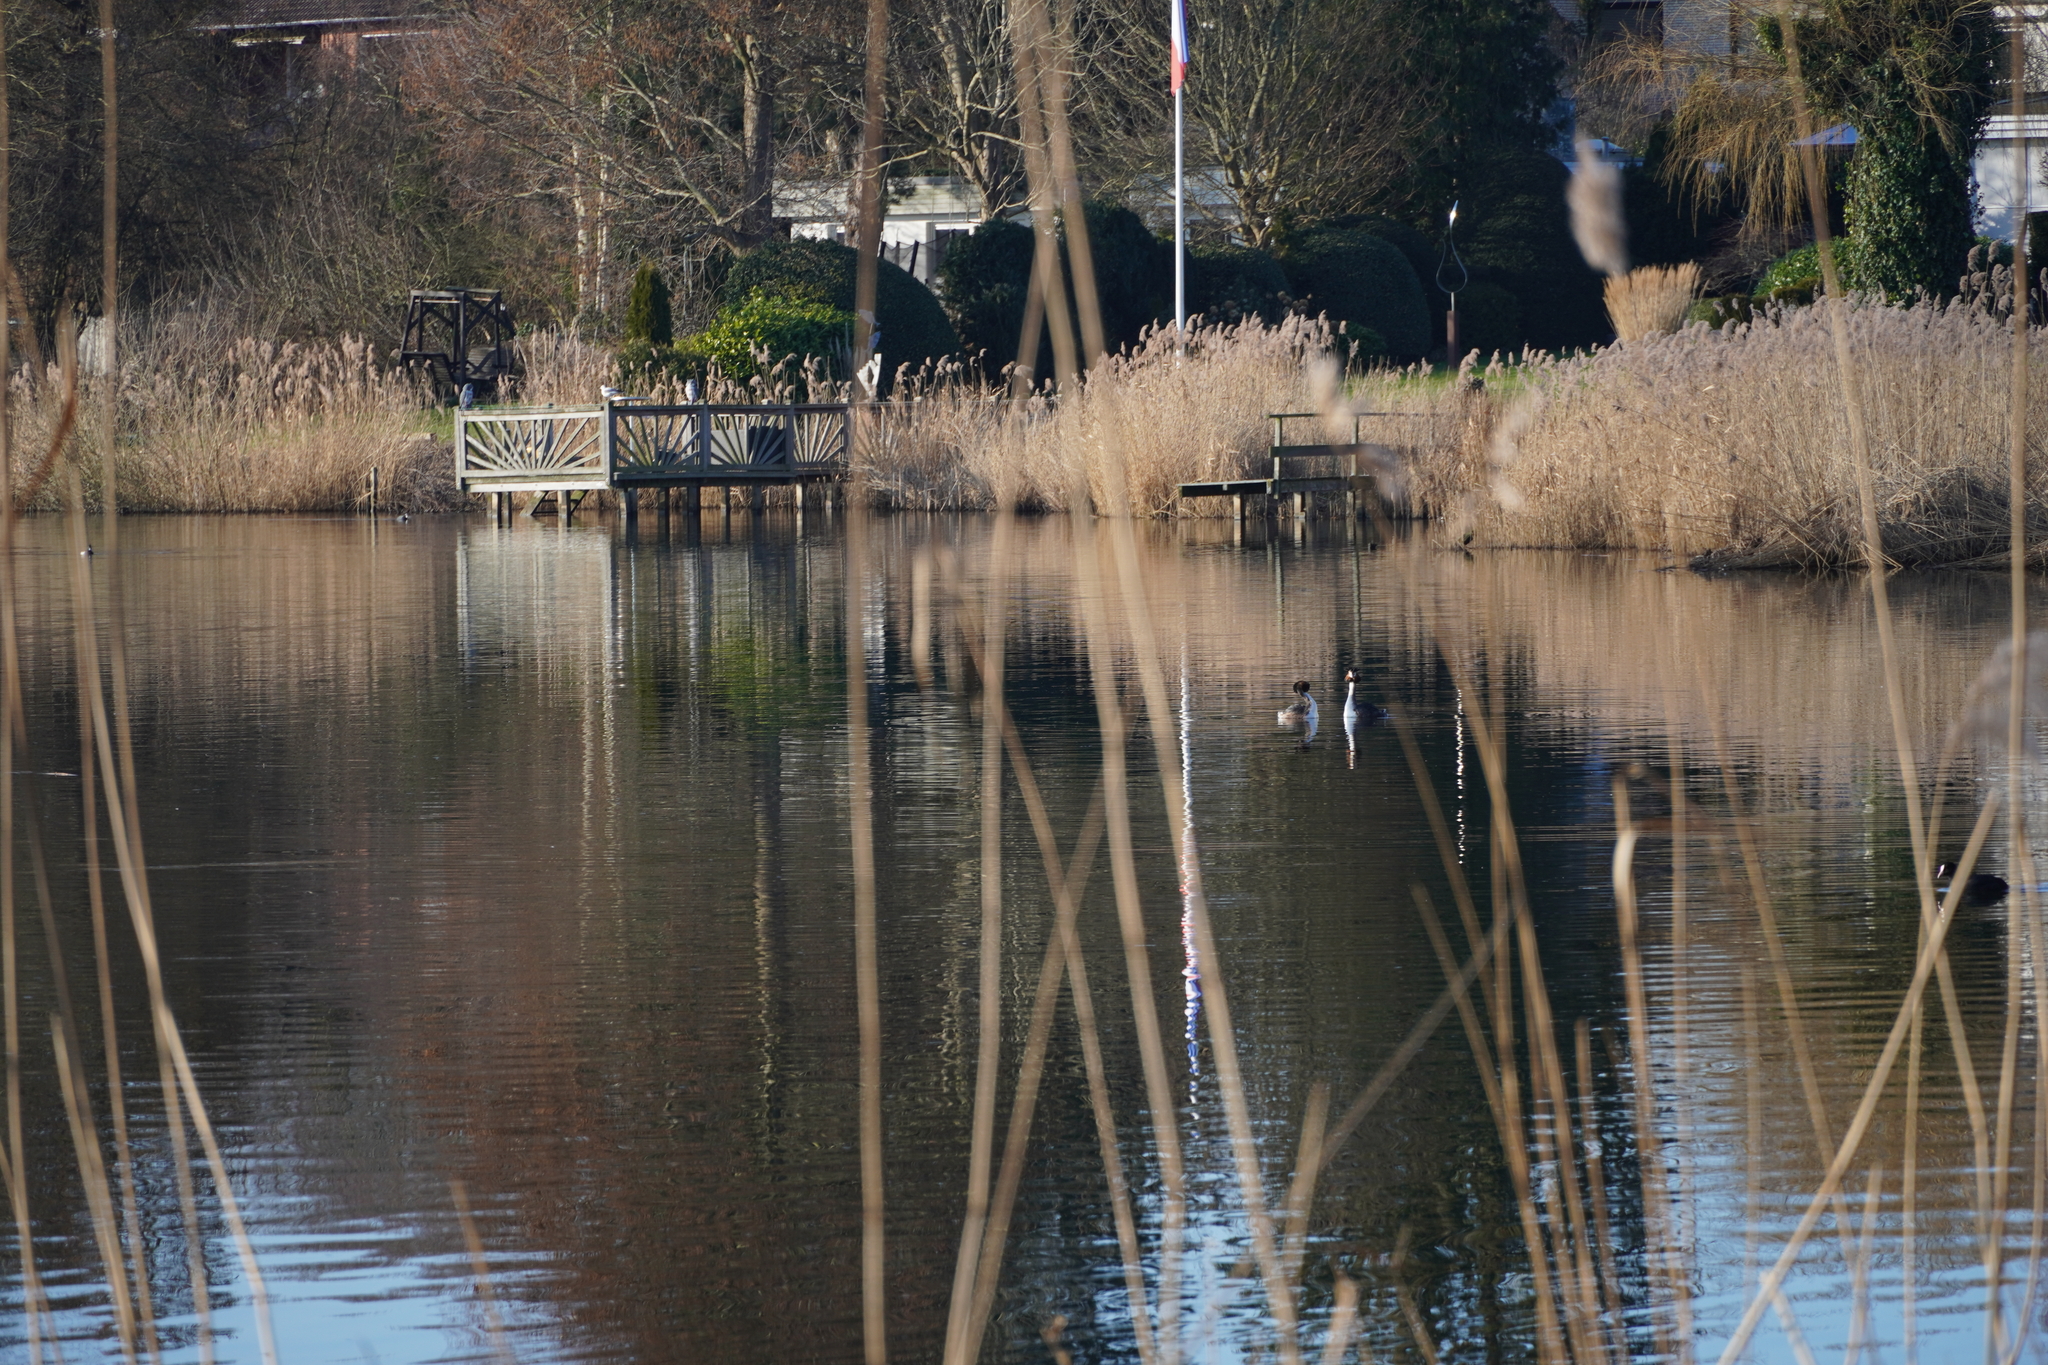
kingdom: Animalia
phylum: Chordata
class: Aves
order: Podicipediformes
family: Podicipedidae
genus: Podiceps
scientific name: Podiceps cristatus
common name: Great crested grebe
